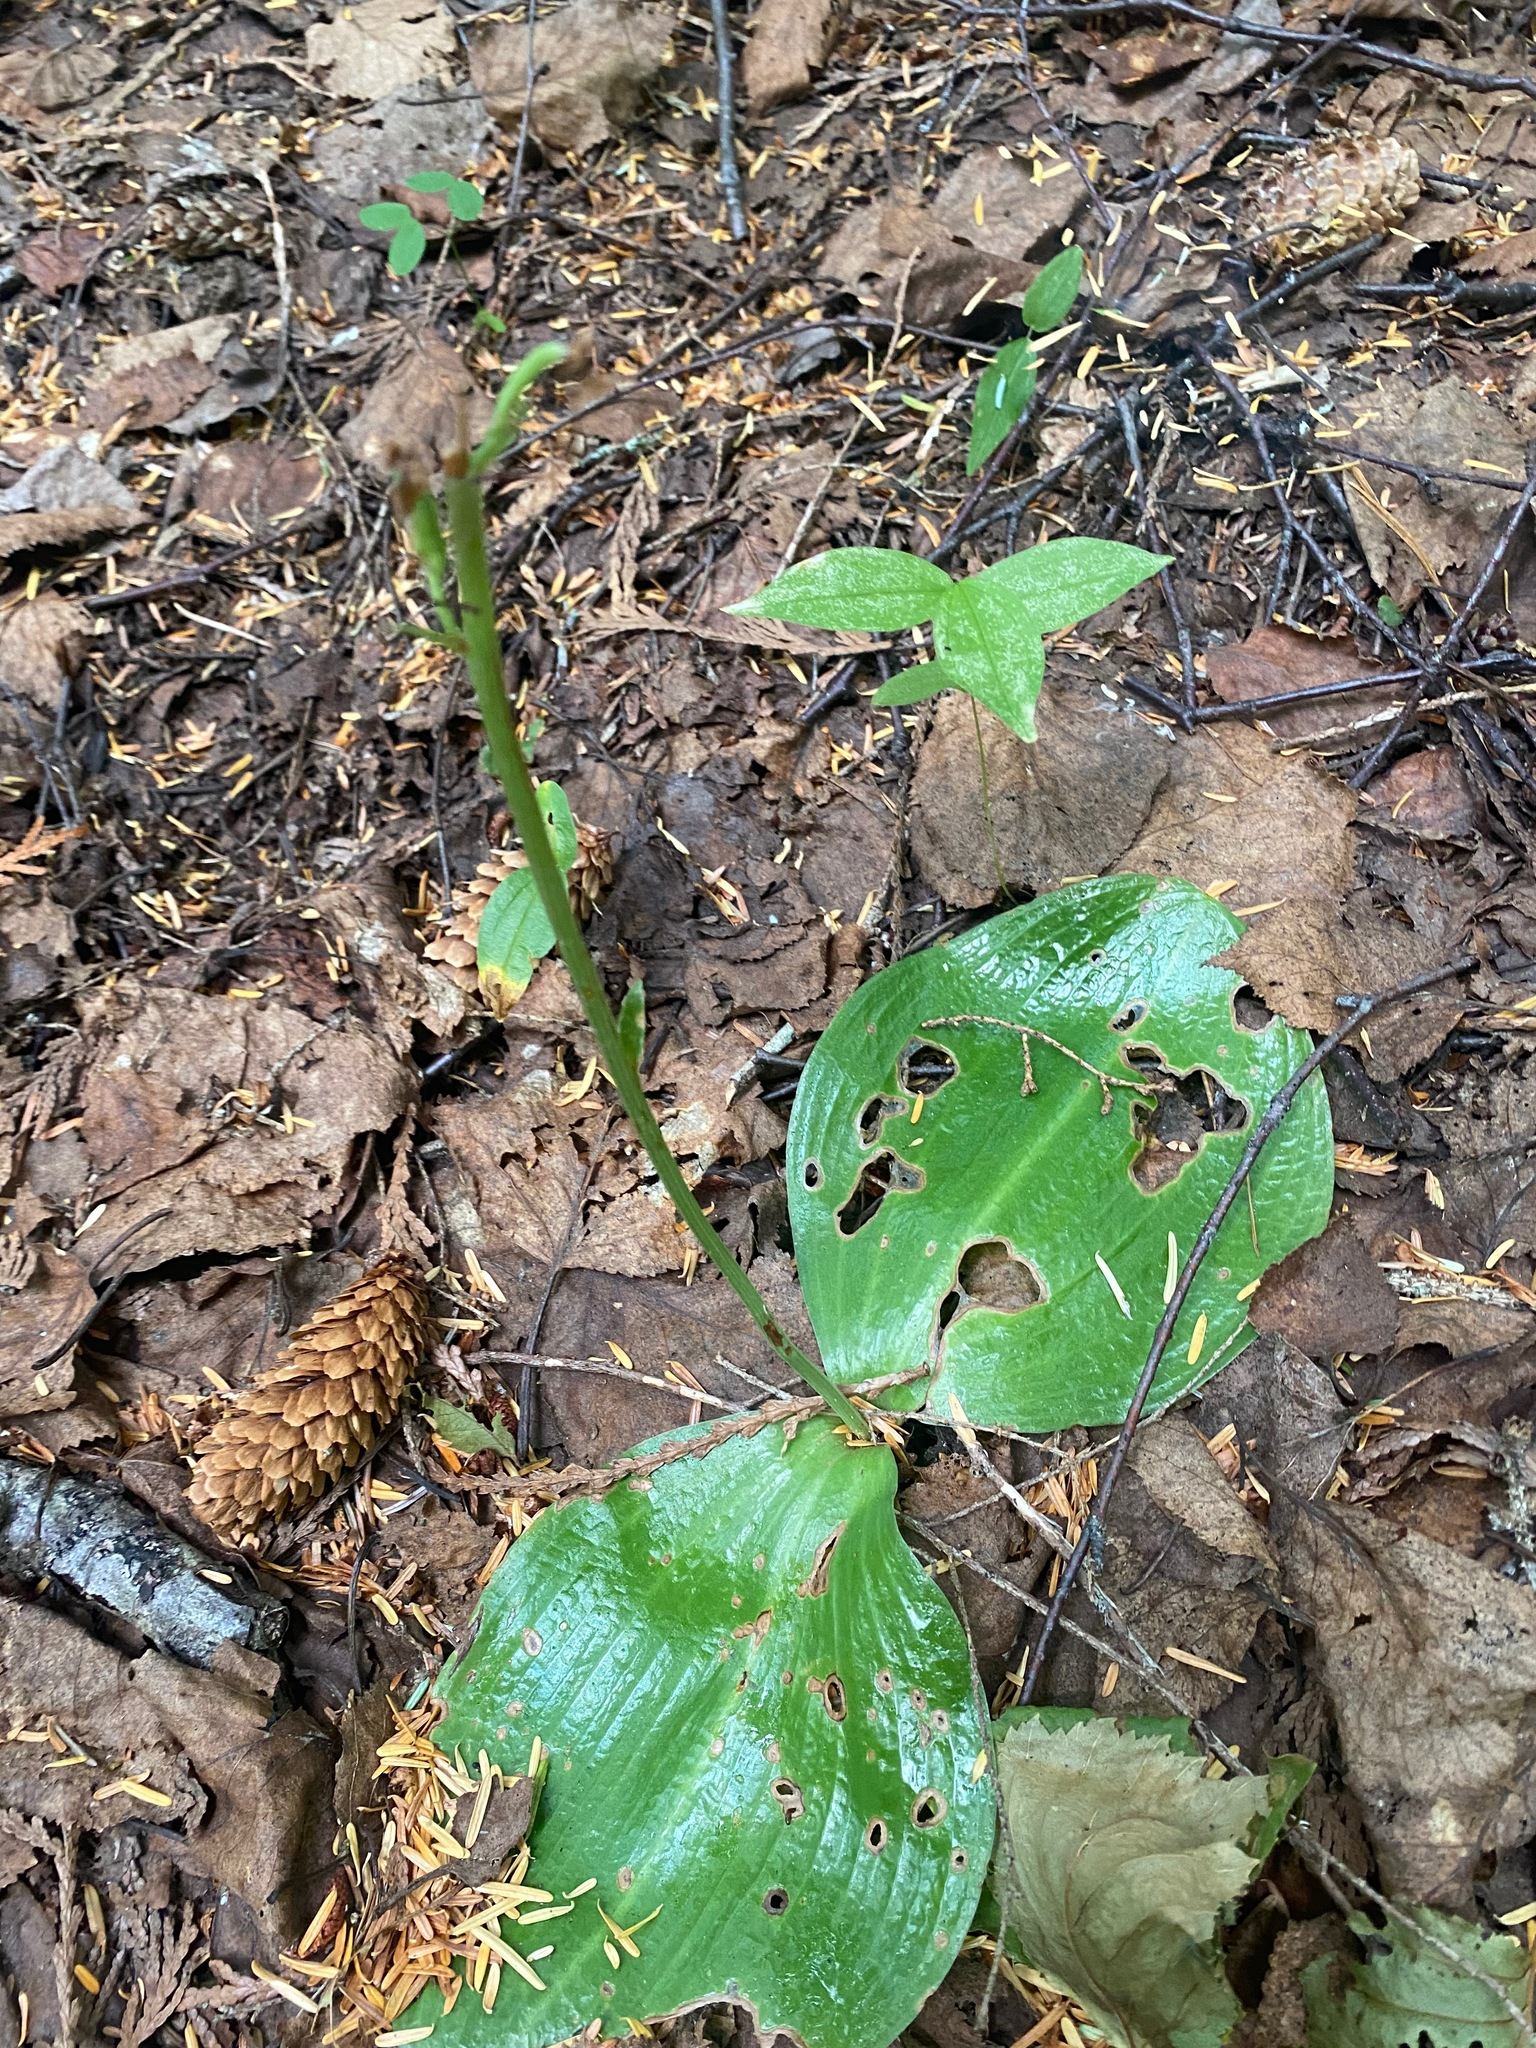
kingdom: Plantae
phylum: Tracheophyta
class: Liliopsida
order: Asparagales
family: Orchidaceae
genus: Platanthera
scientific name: Platanthera orbiculata
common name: Large round-leaved orchid
